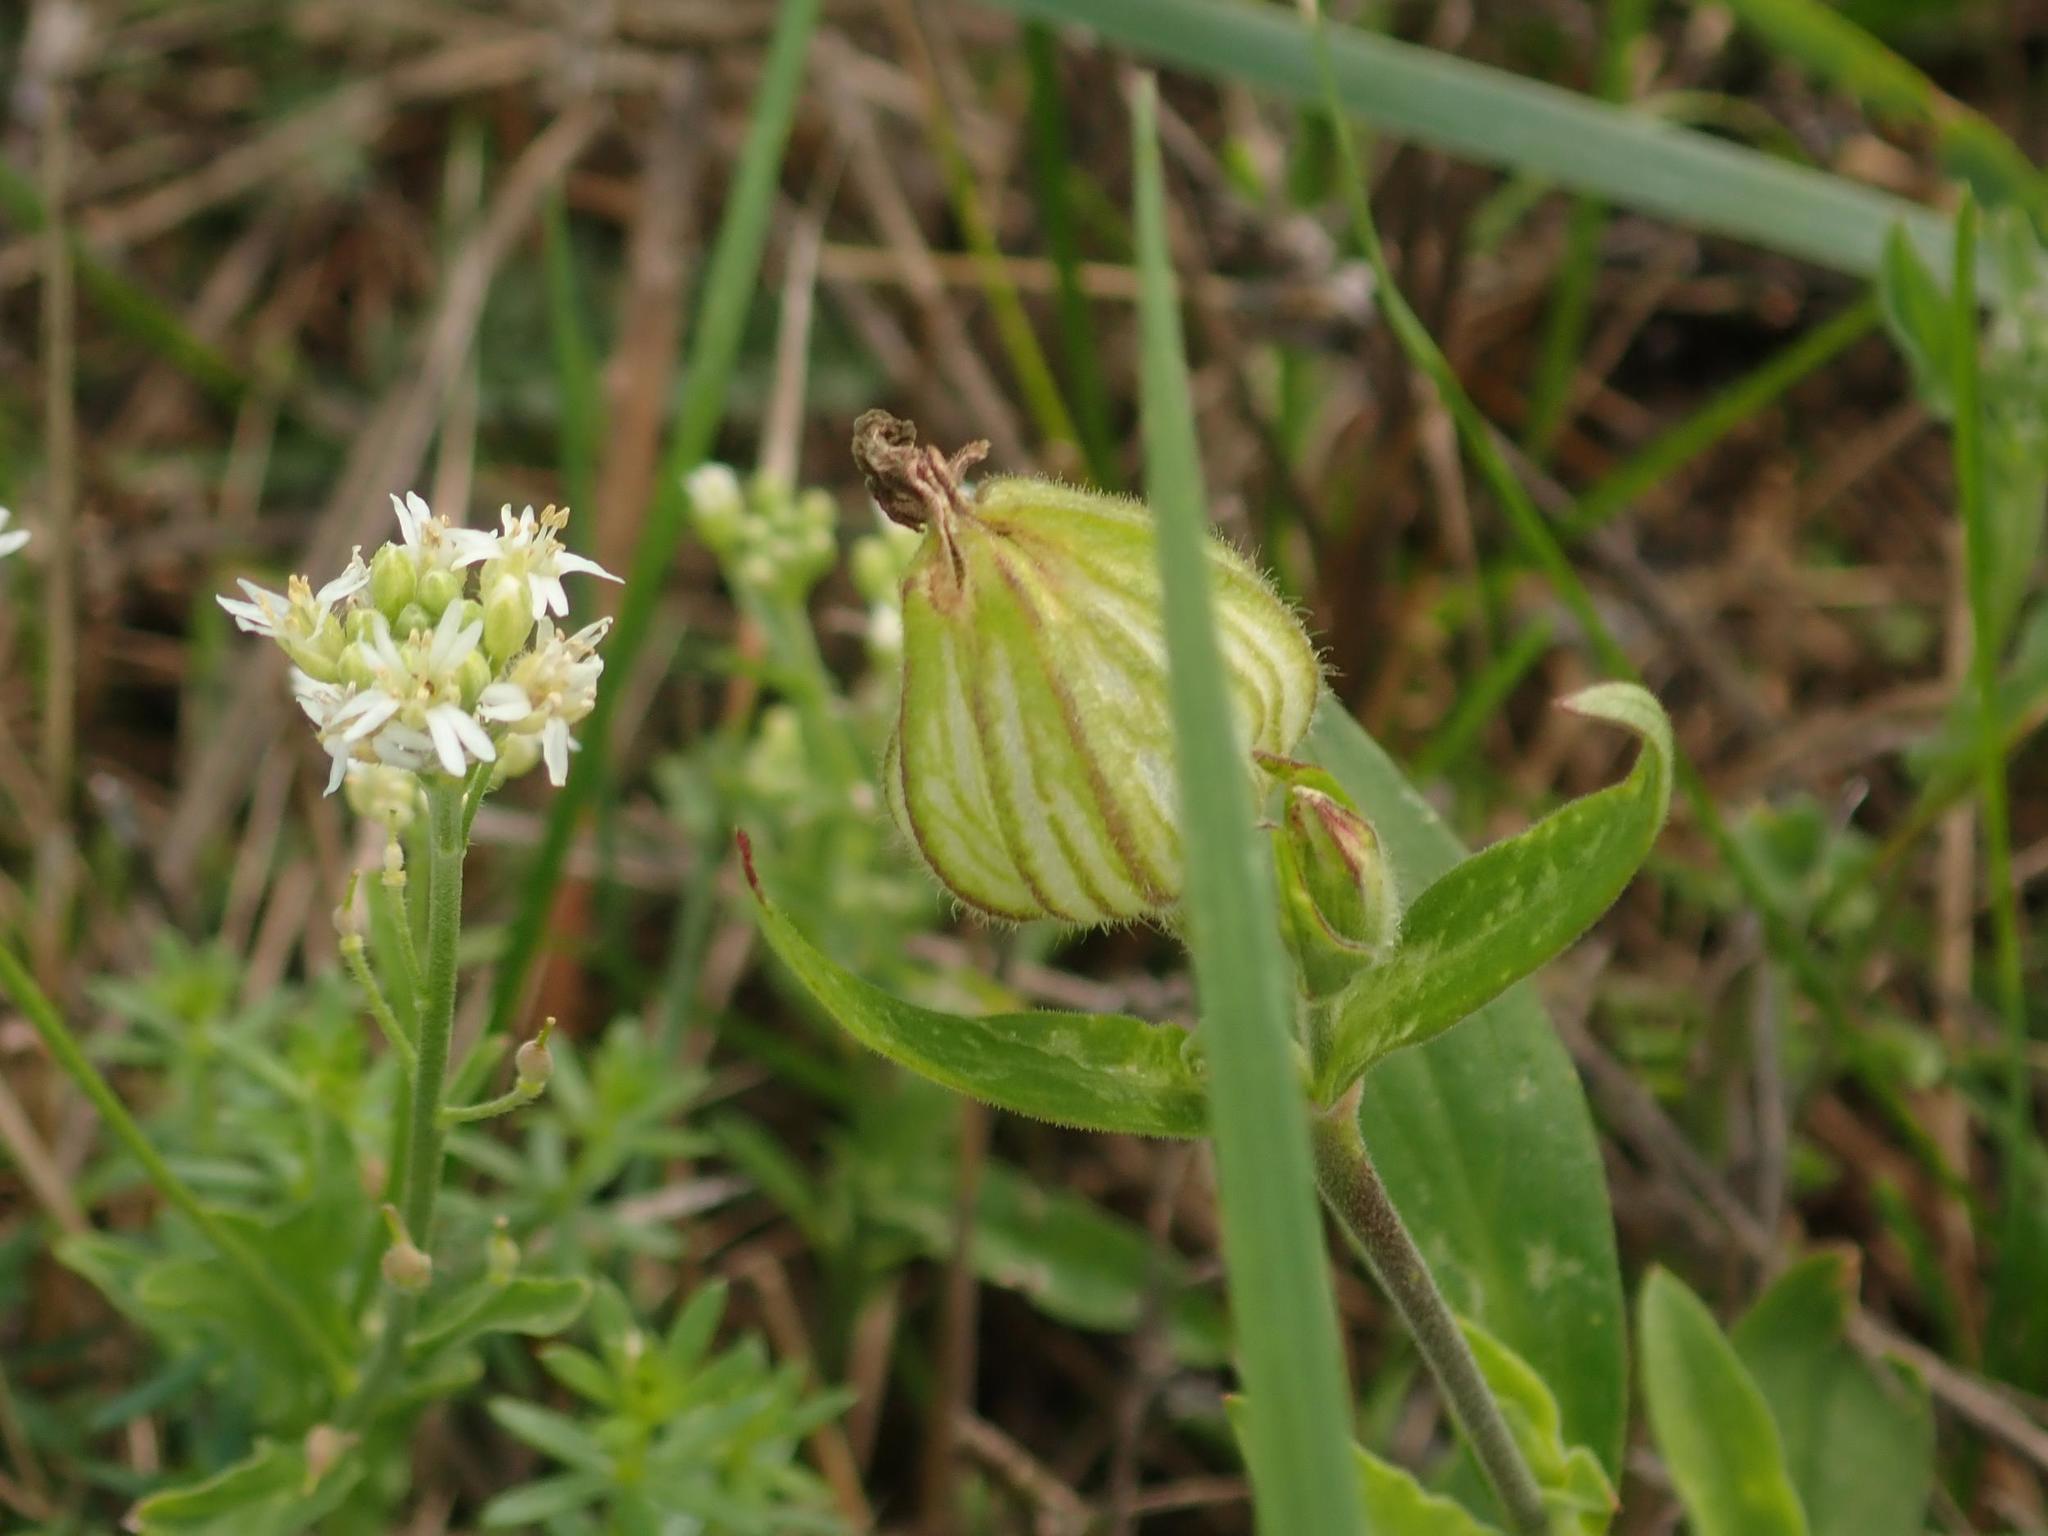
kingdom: Plantae
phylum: Tracheophyta
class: Magnoliopsida
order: Caryophyllales
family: Caryophyllaceae
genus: Silene
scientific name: Silene latifolia
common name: White campion
